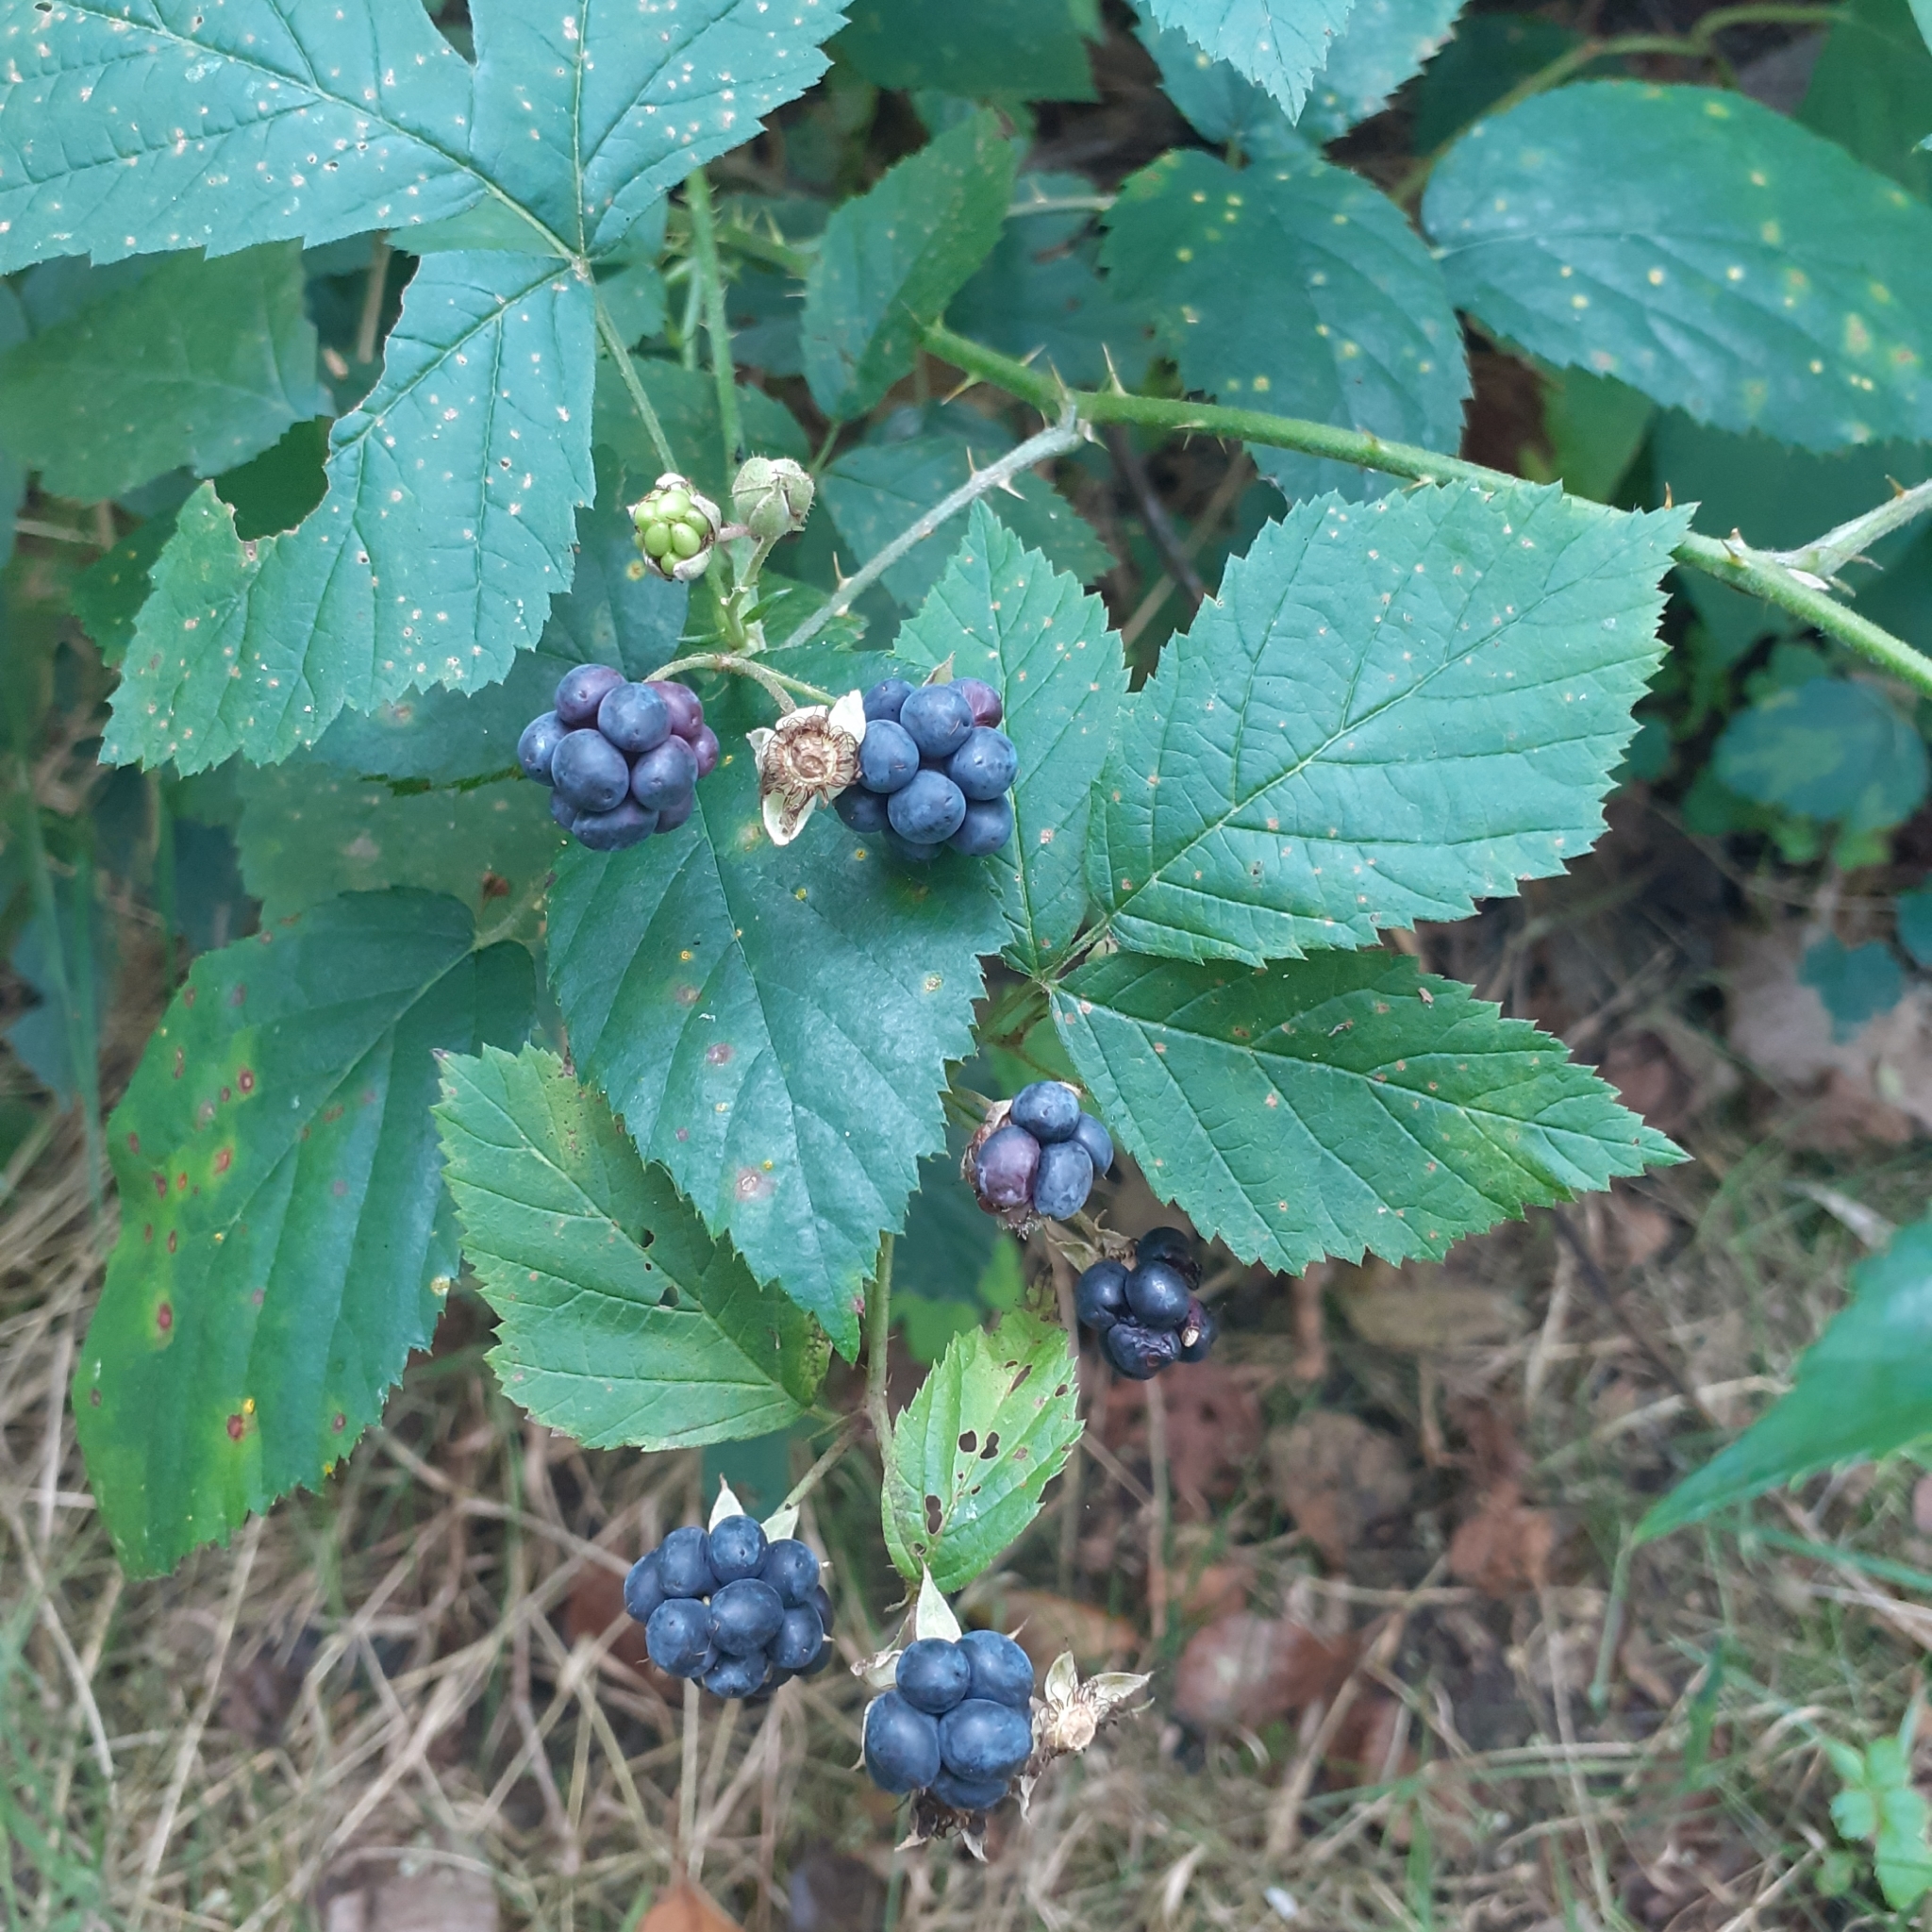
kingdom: Plantae
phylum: Tracheophyta
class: Magnoliopsida
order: Rosales
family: Rosaceae
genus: Rubus
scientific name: Rubus caesius
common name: Dewberry
